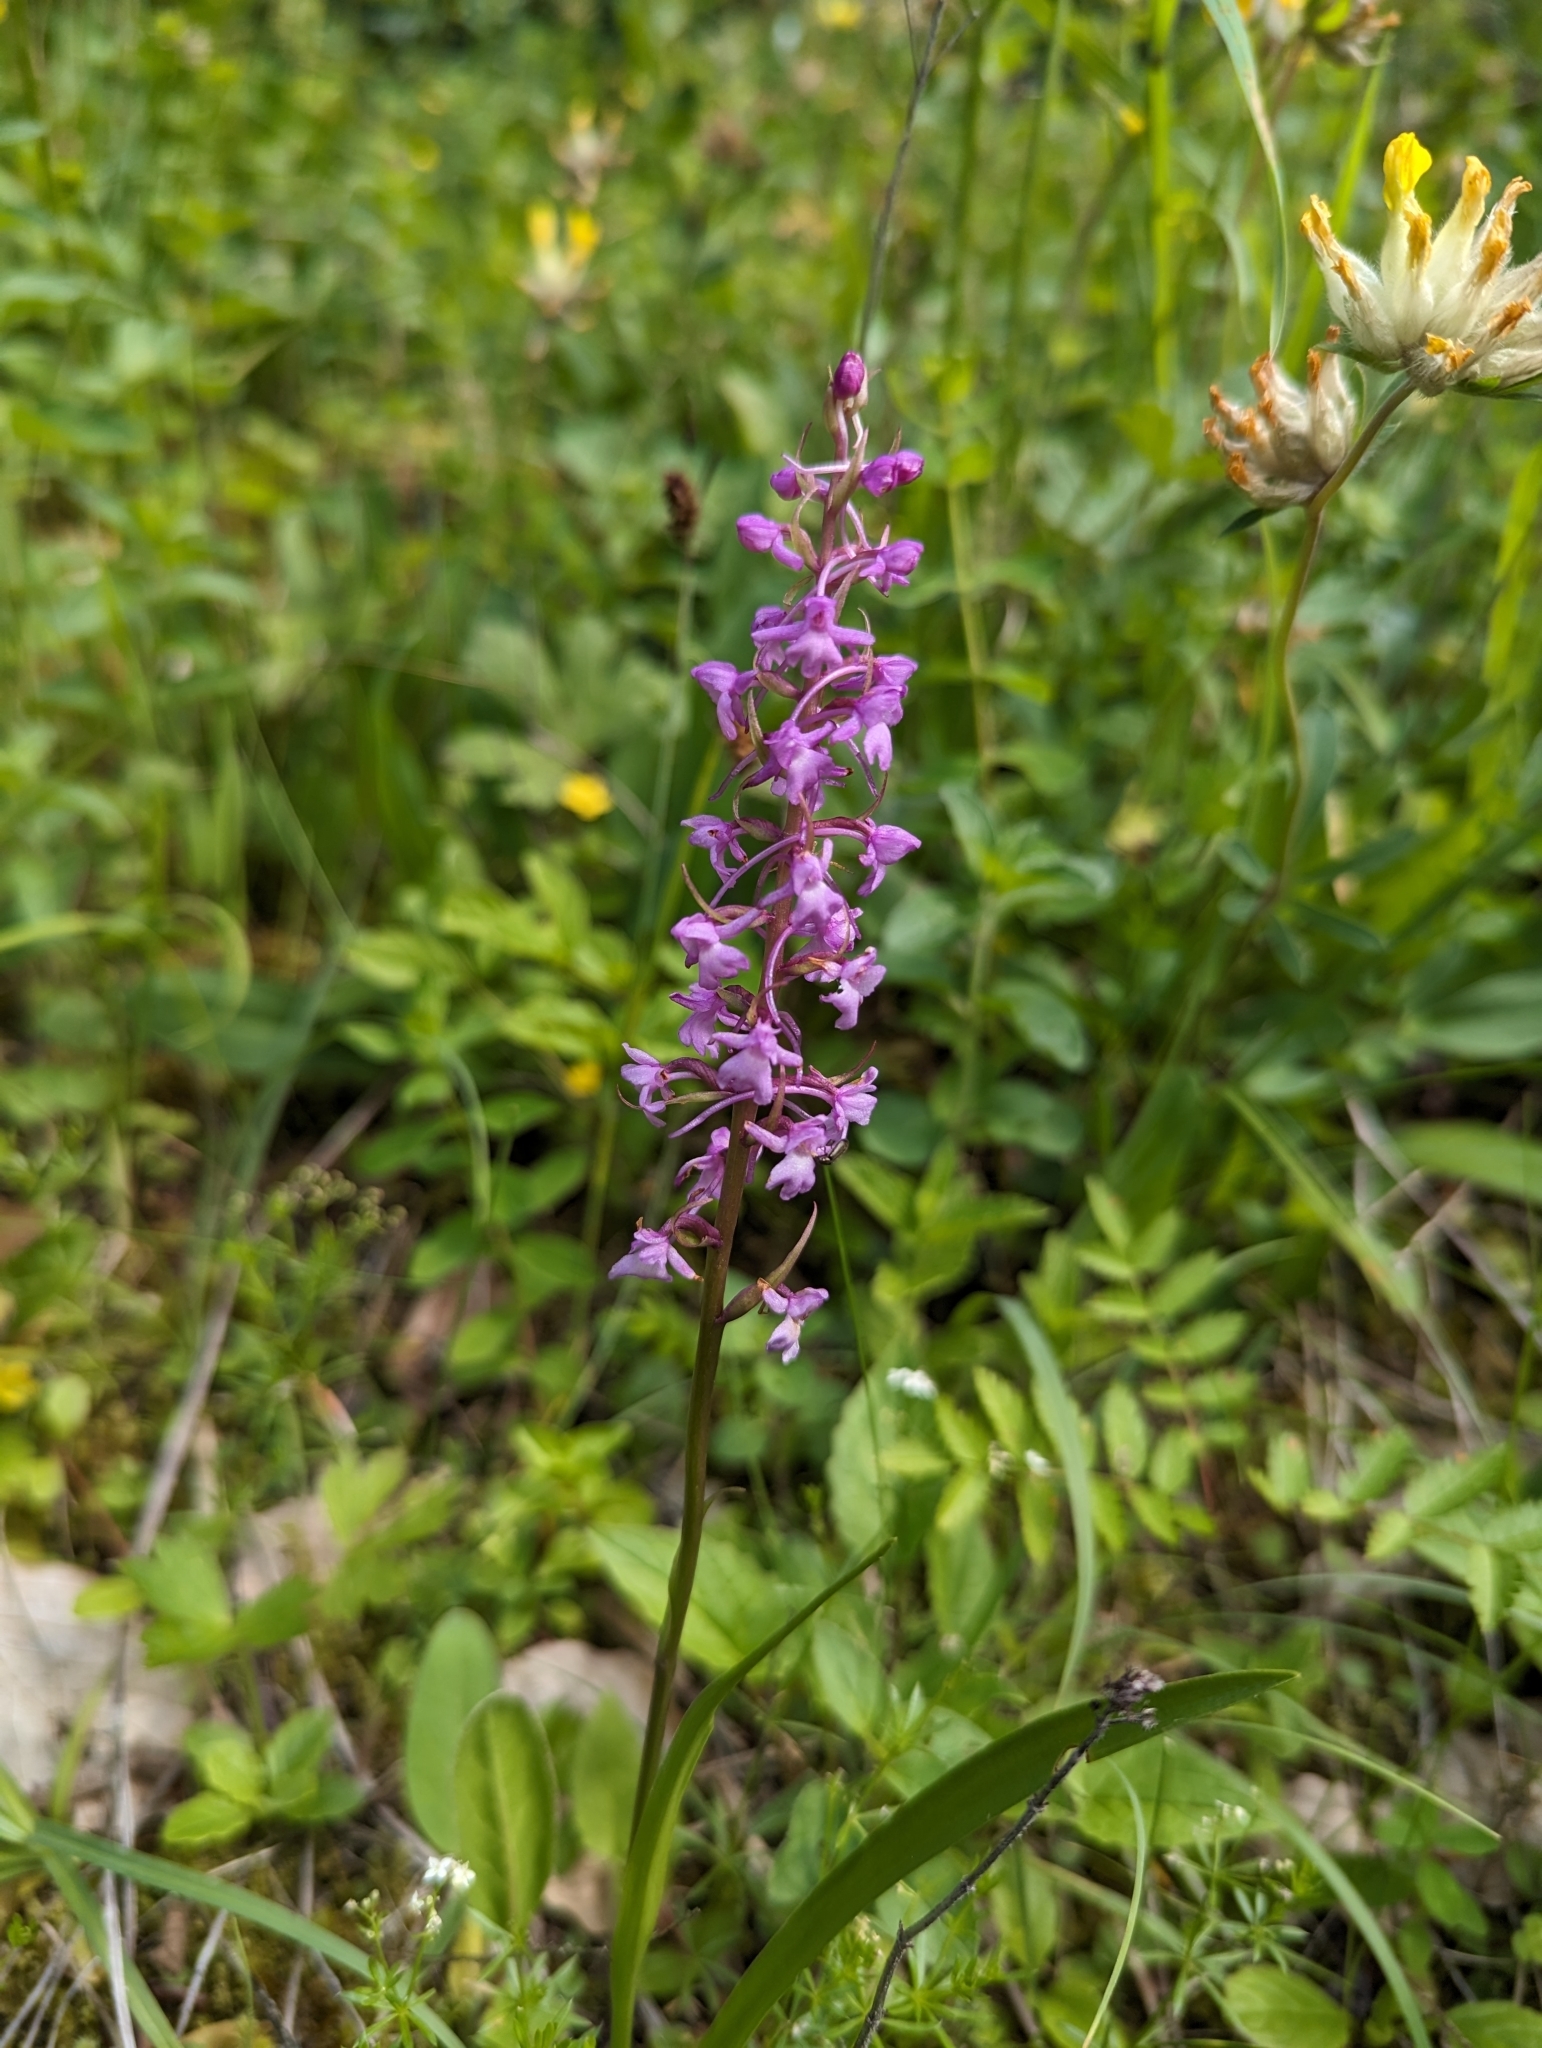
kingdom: Plantae
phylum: Tracheophyta
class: Liliopsida
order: Asparagales
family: Orchidaceae
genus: Gymnadenia
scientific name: Gymnadenia conopsea
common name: Fragrant orchid
